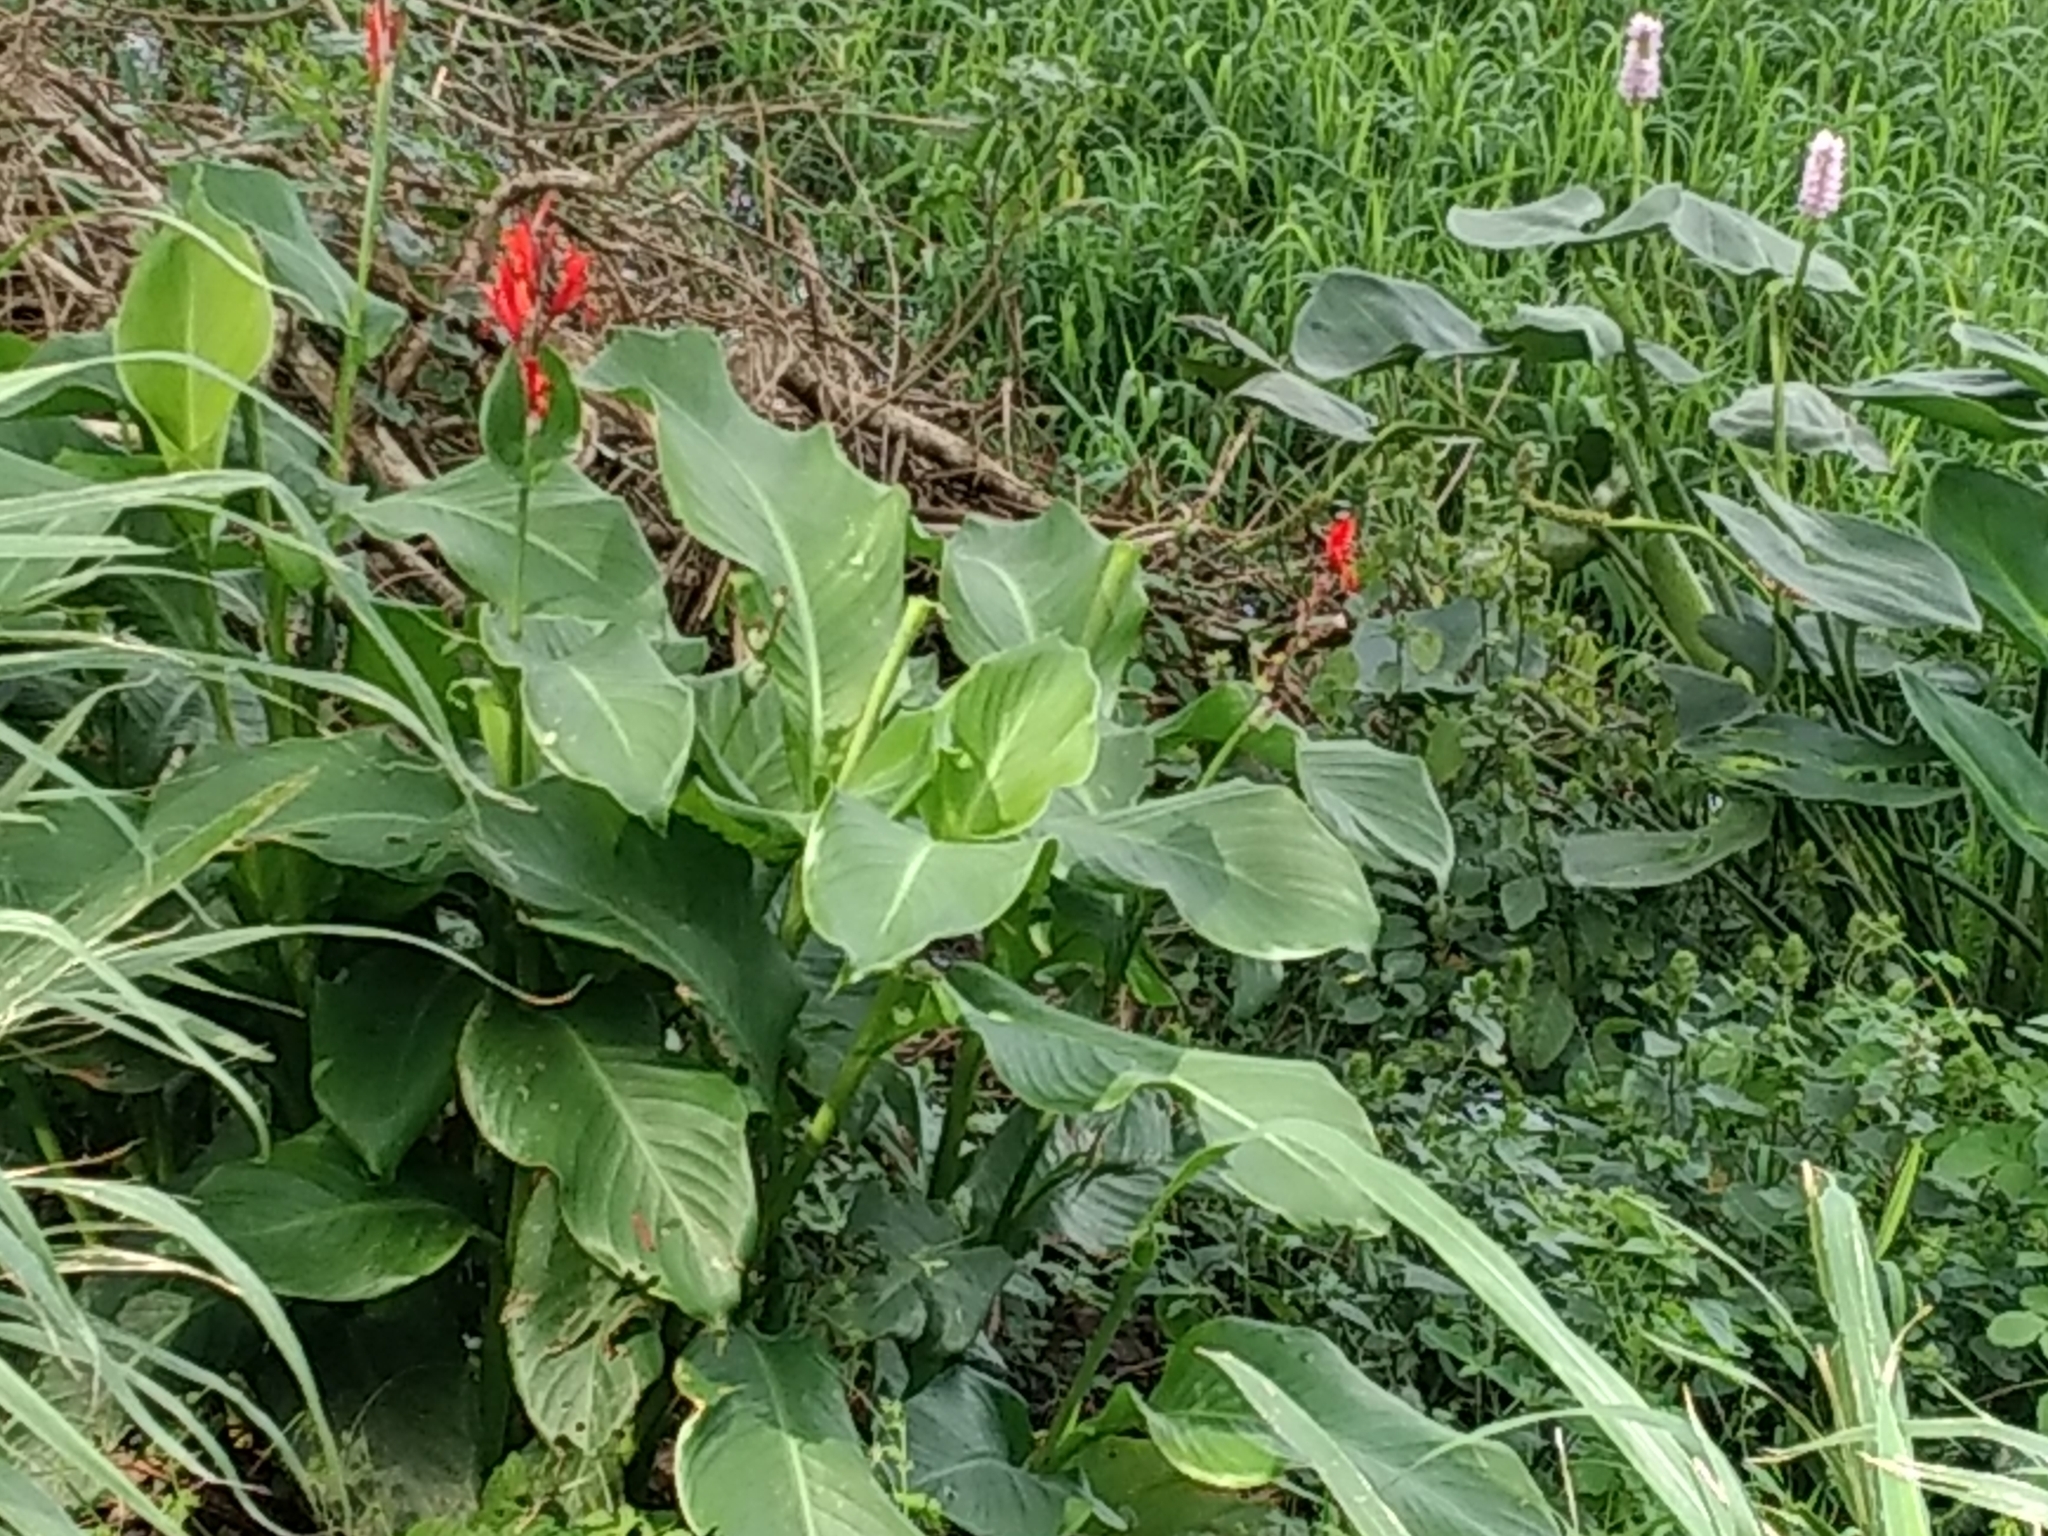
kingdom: Plantae
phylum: Tracheophyta
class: Liliopsida
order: Zingiberales
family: Cannaceae
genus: Canna
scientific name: Canna indica
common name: Indian shot
